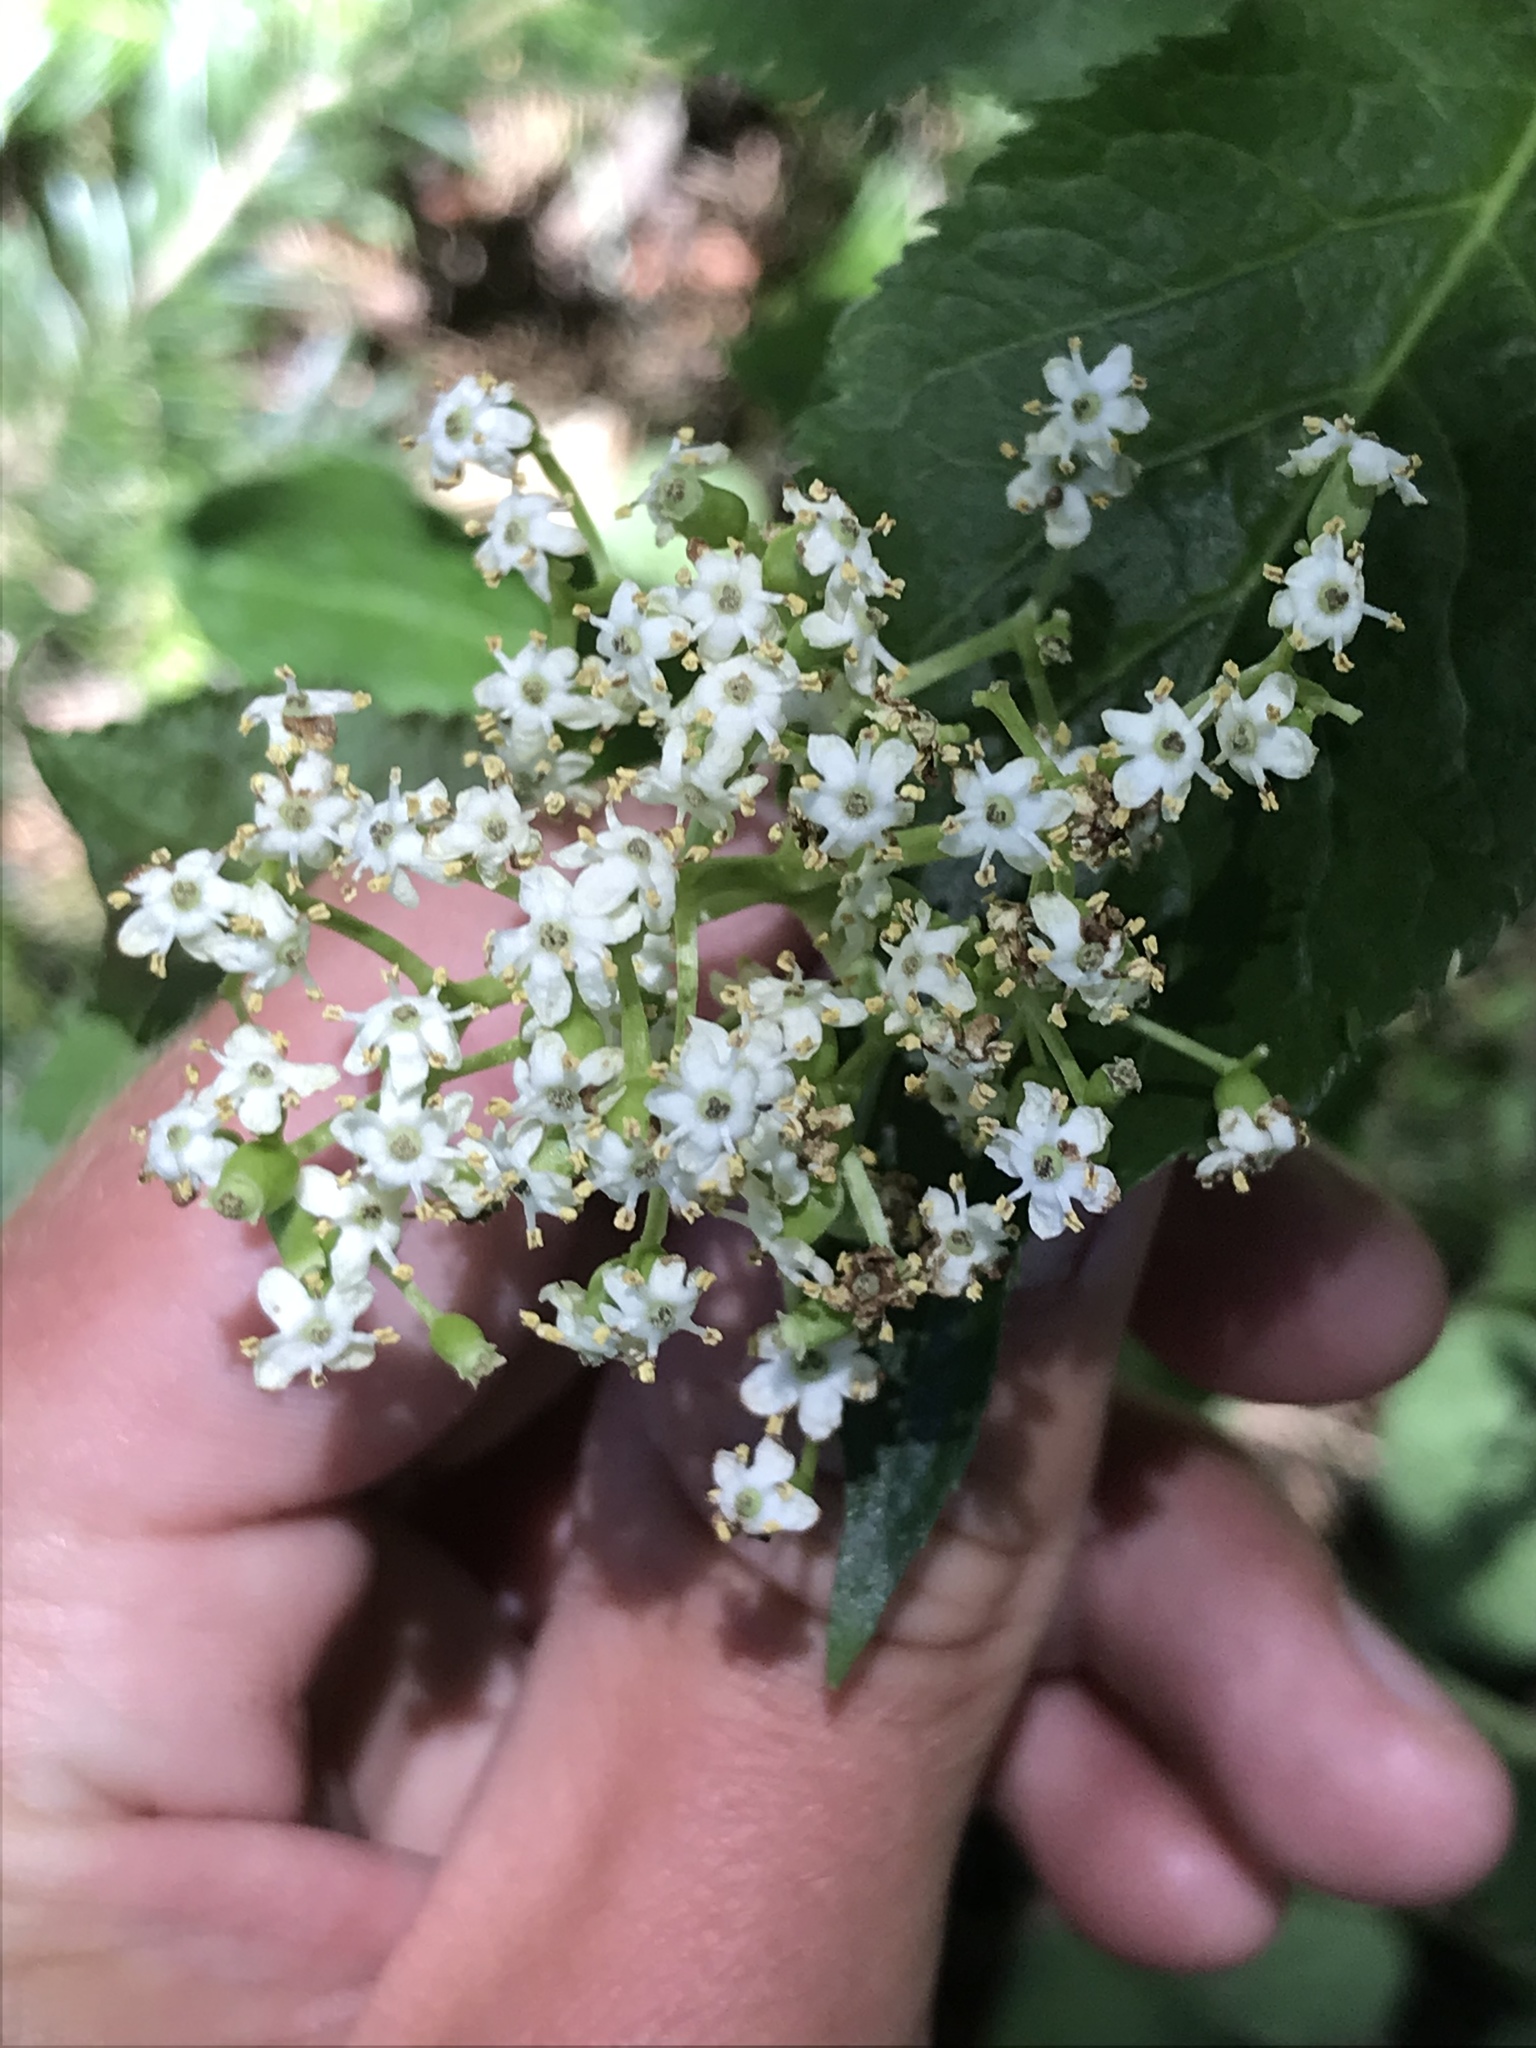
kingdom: Plantae
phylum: Tracheophyta
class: Magnoliopsida
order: Dipsacales
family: Viburnaceae
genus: Sambucus
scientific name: Sambucus racemosa
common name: Red-berried elder
